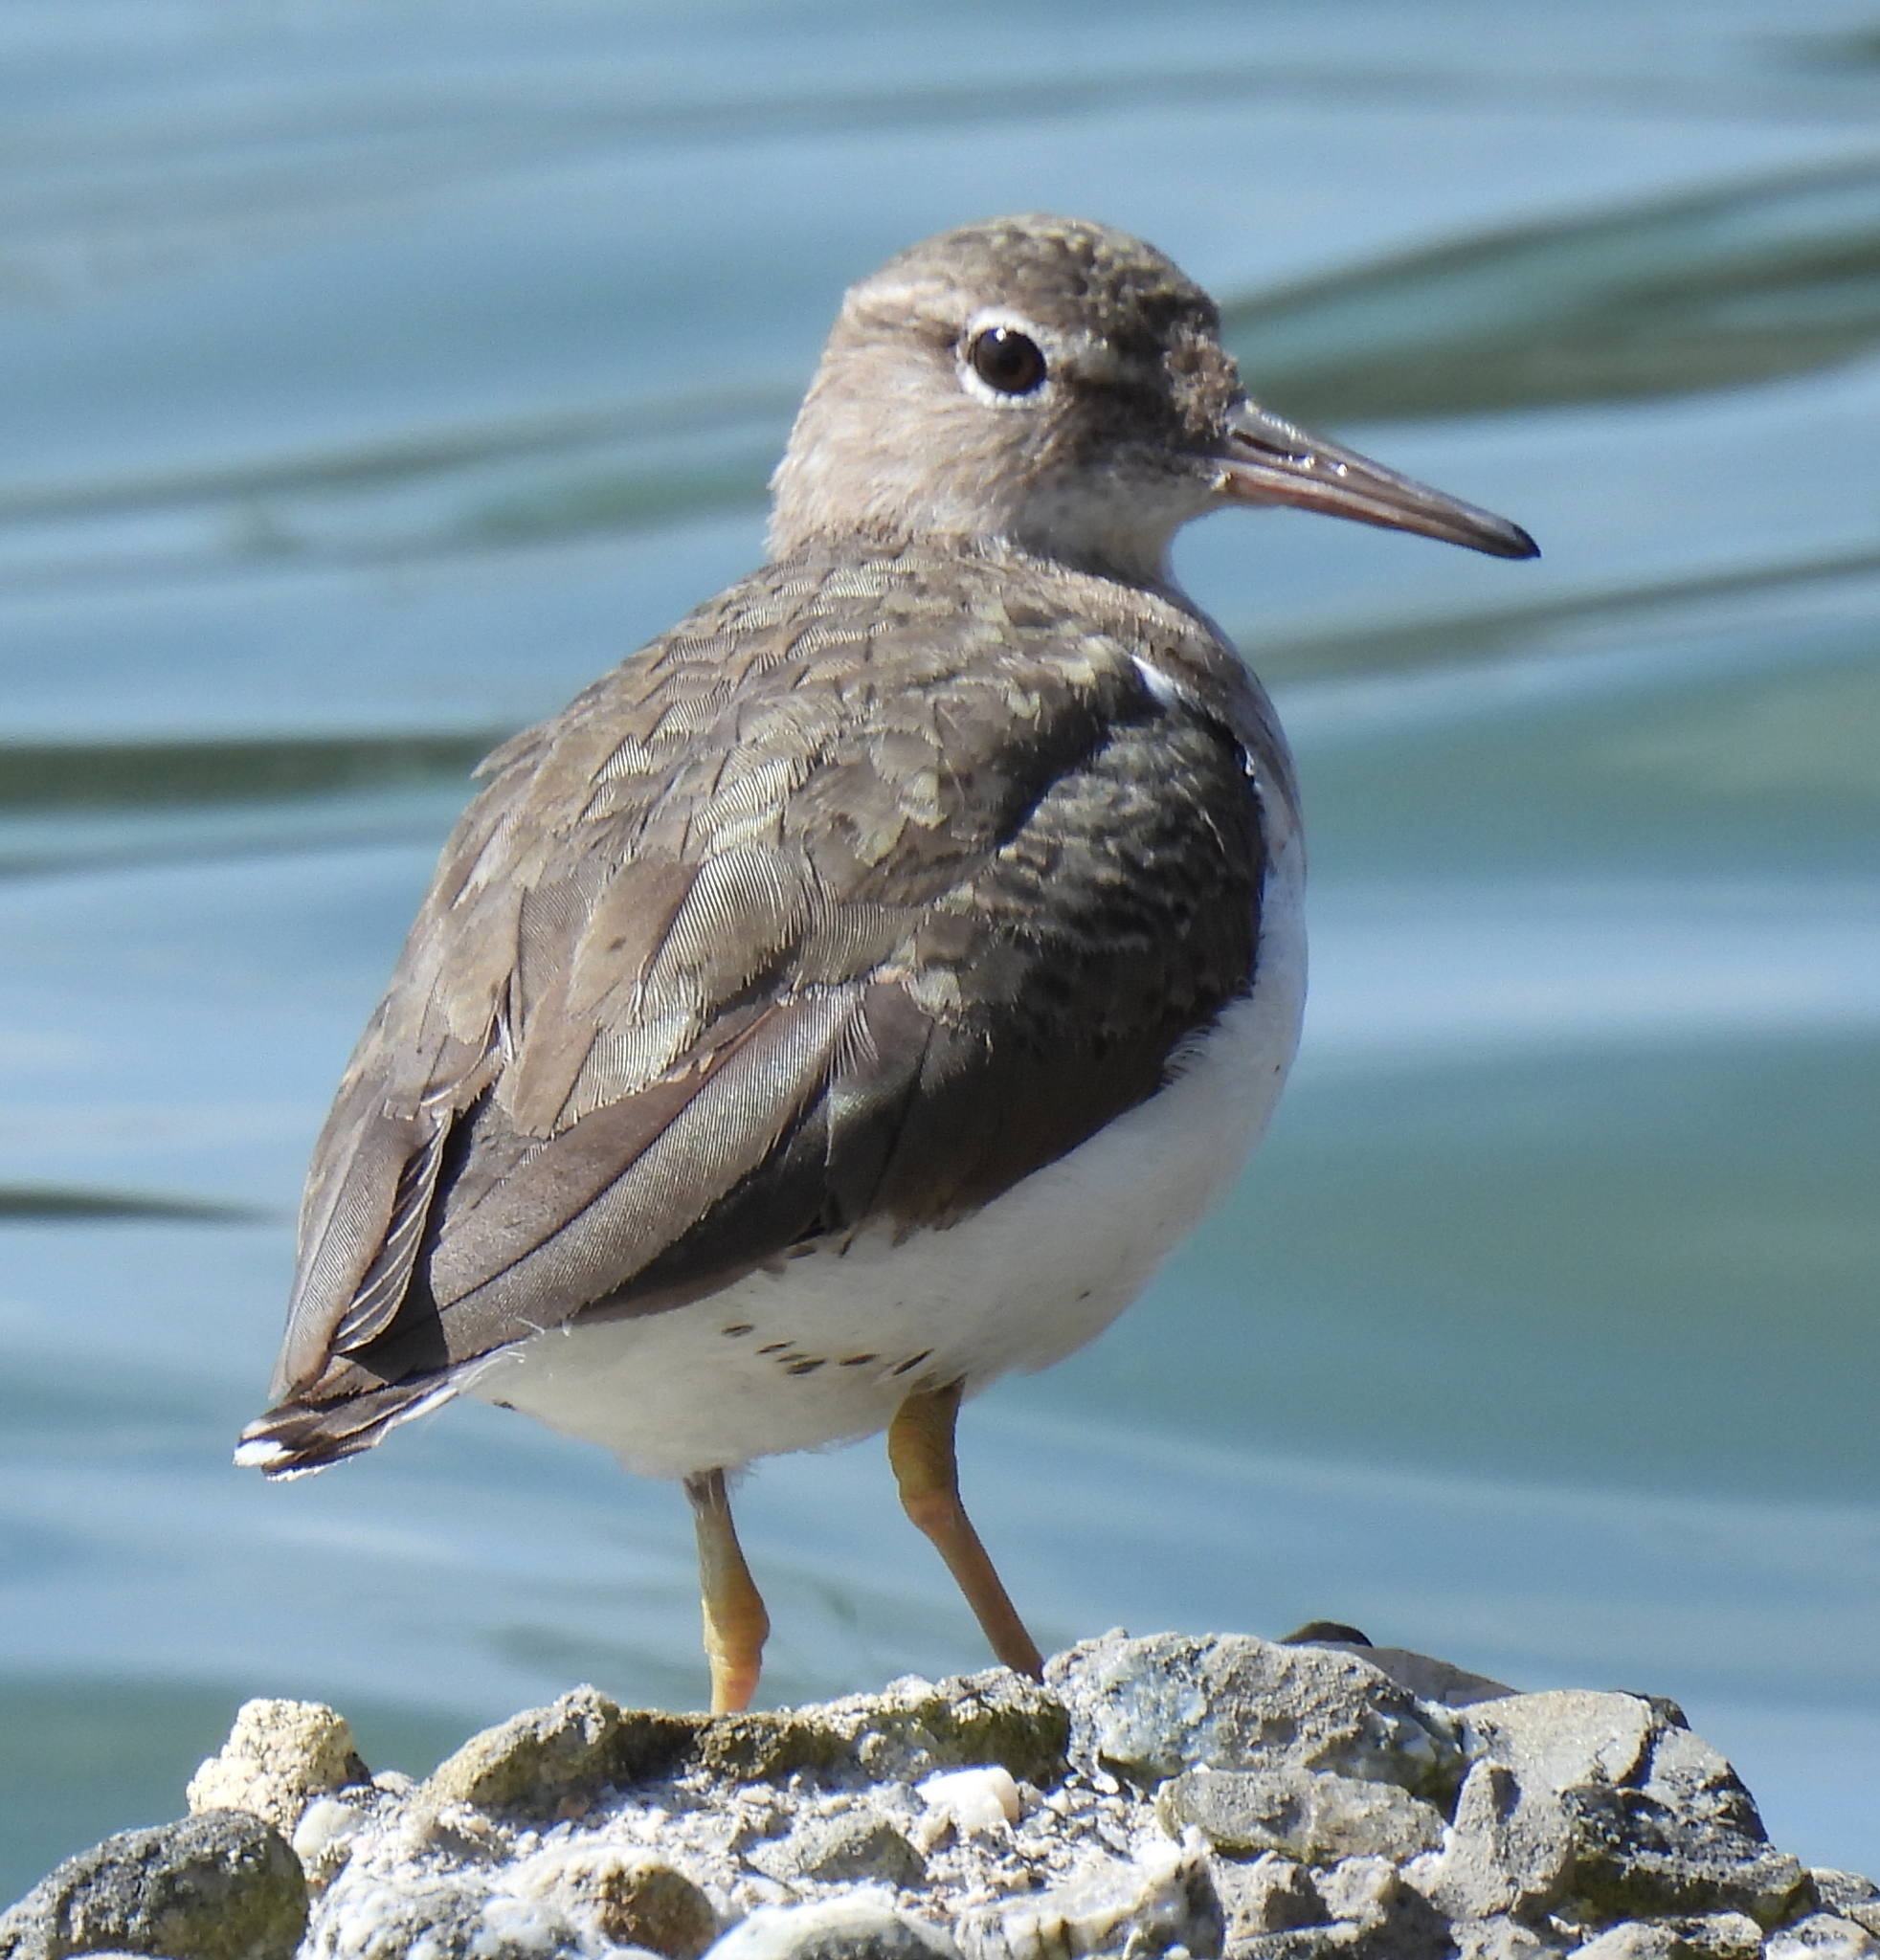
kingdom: Animalia
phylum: Chordata
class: Aves
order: Charadriiformes
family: Scolopacidae
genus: Actitis
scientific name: Actitis macularius
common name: Spotted sandpiper
